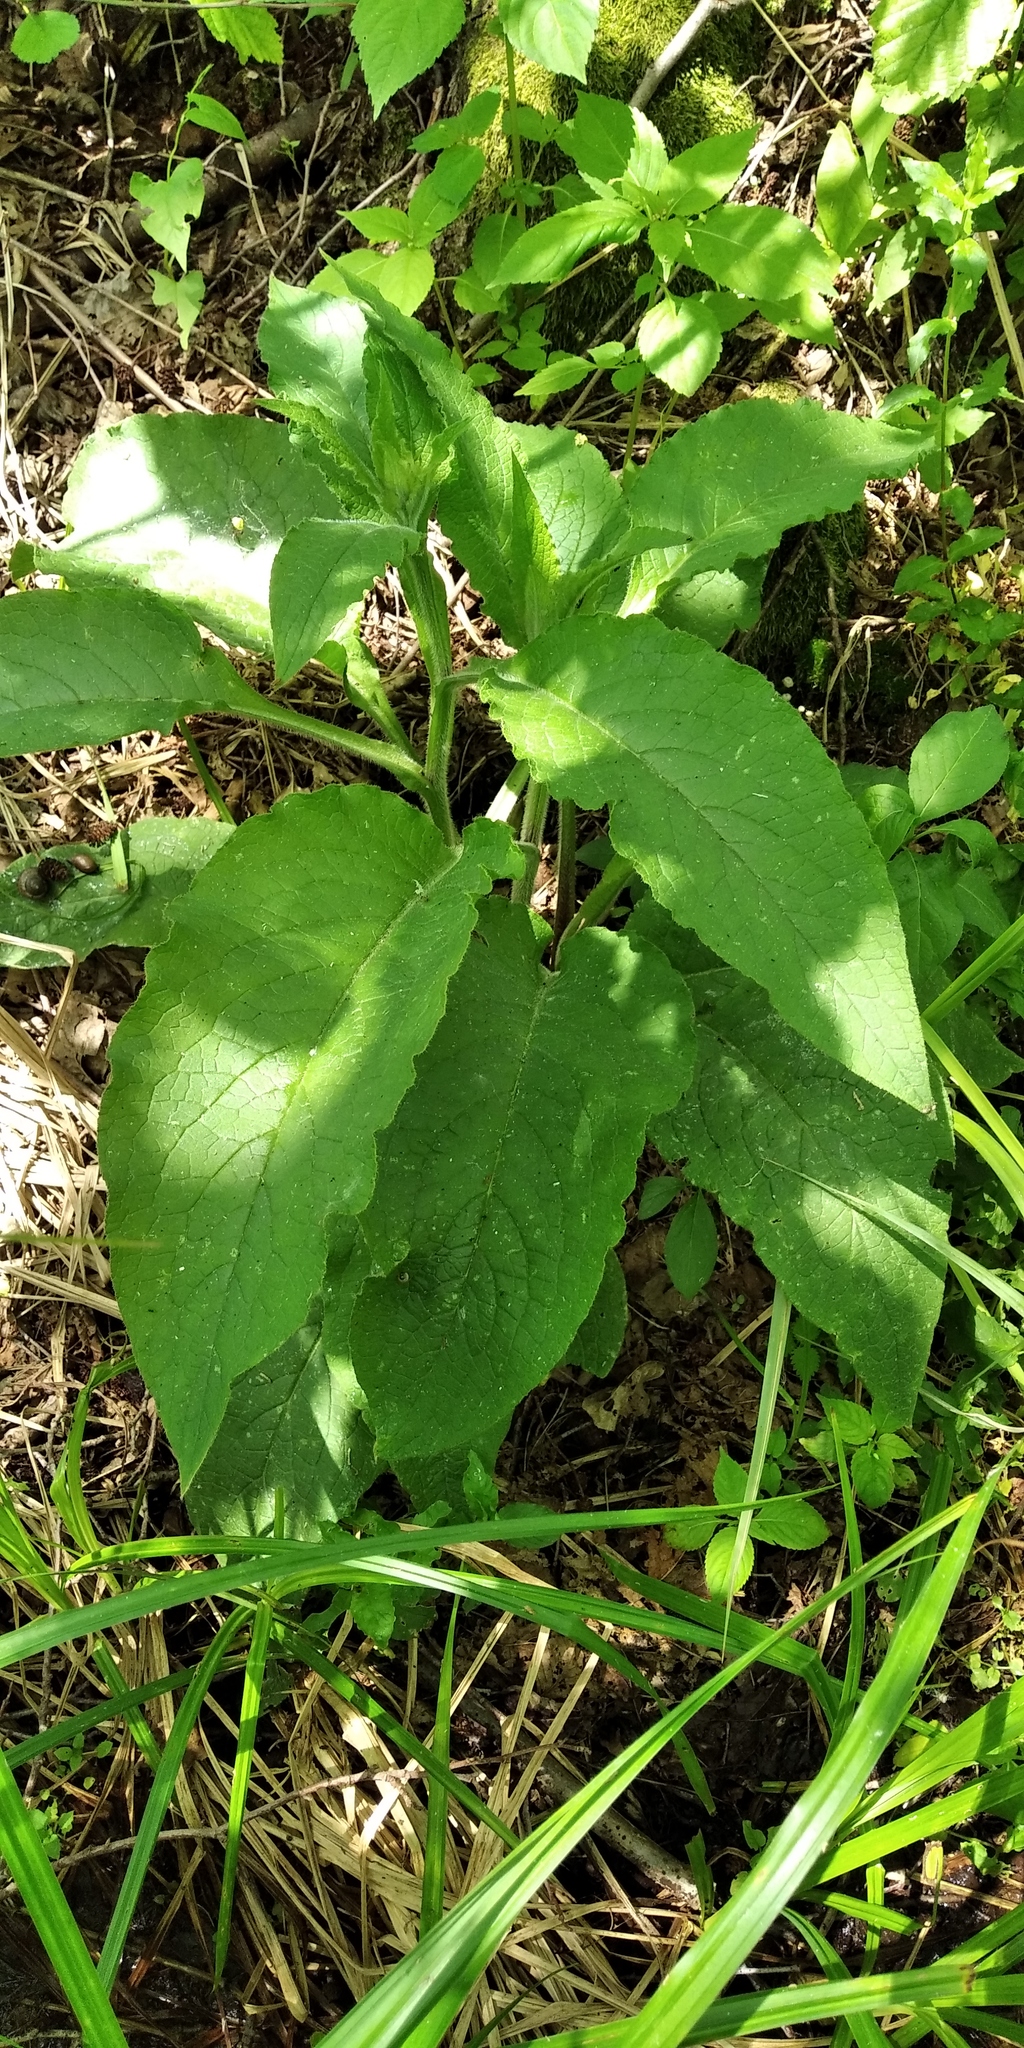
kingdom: Plantae
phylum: Tracheophyta
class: Magnoliopsida
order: Boraginales
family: Boraginaceae
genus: Symphytum
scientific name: Symphytum officinale
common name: Common comfrey
